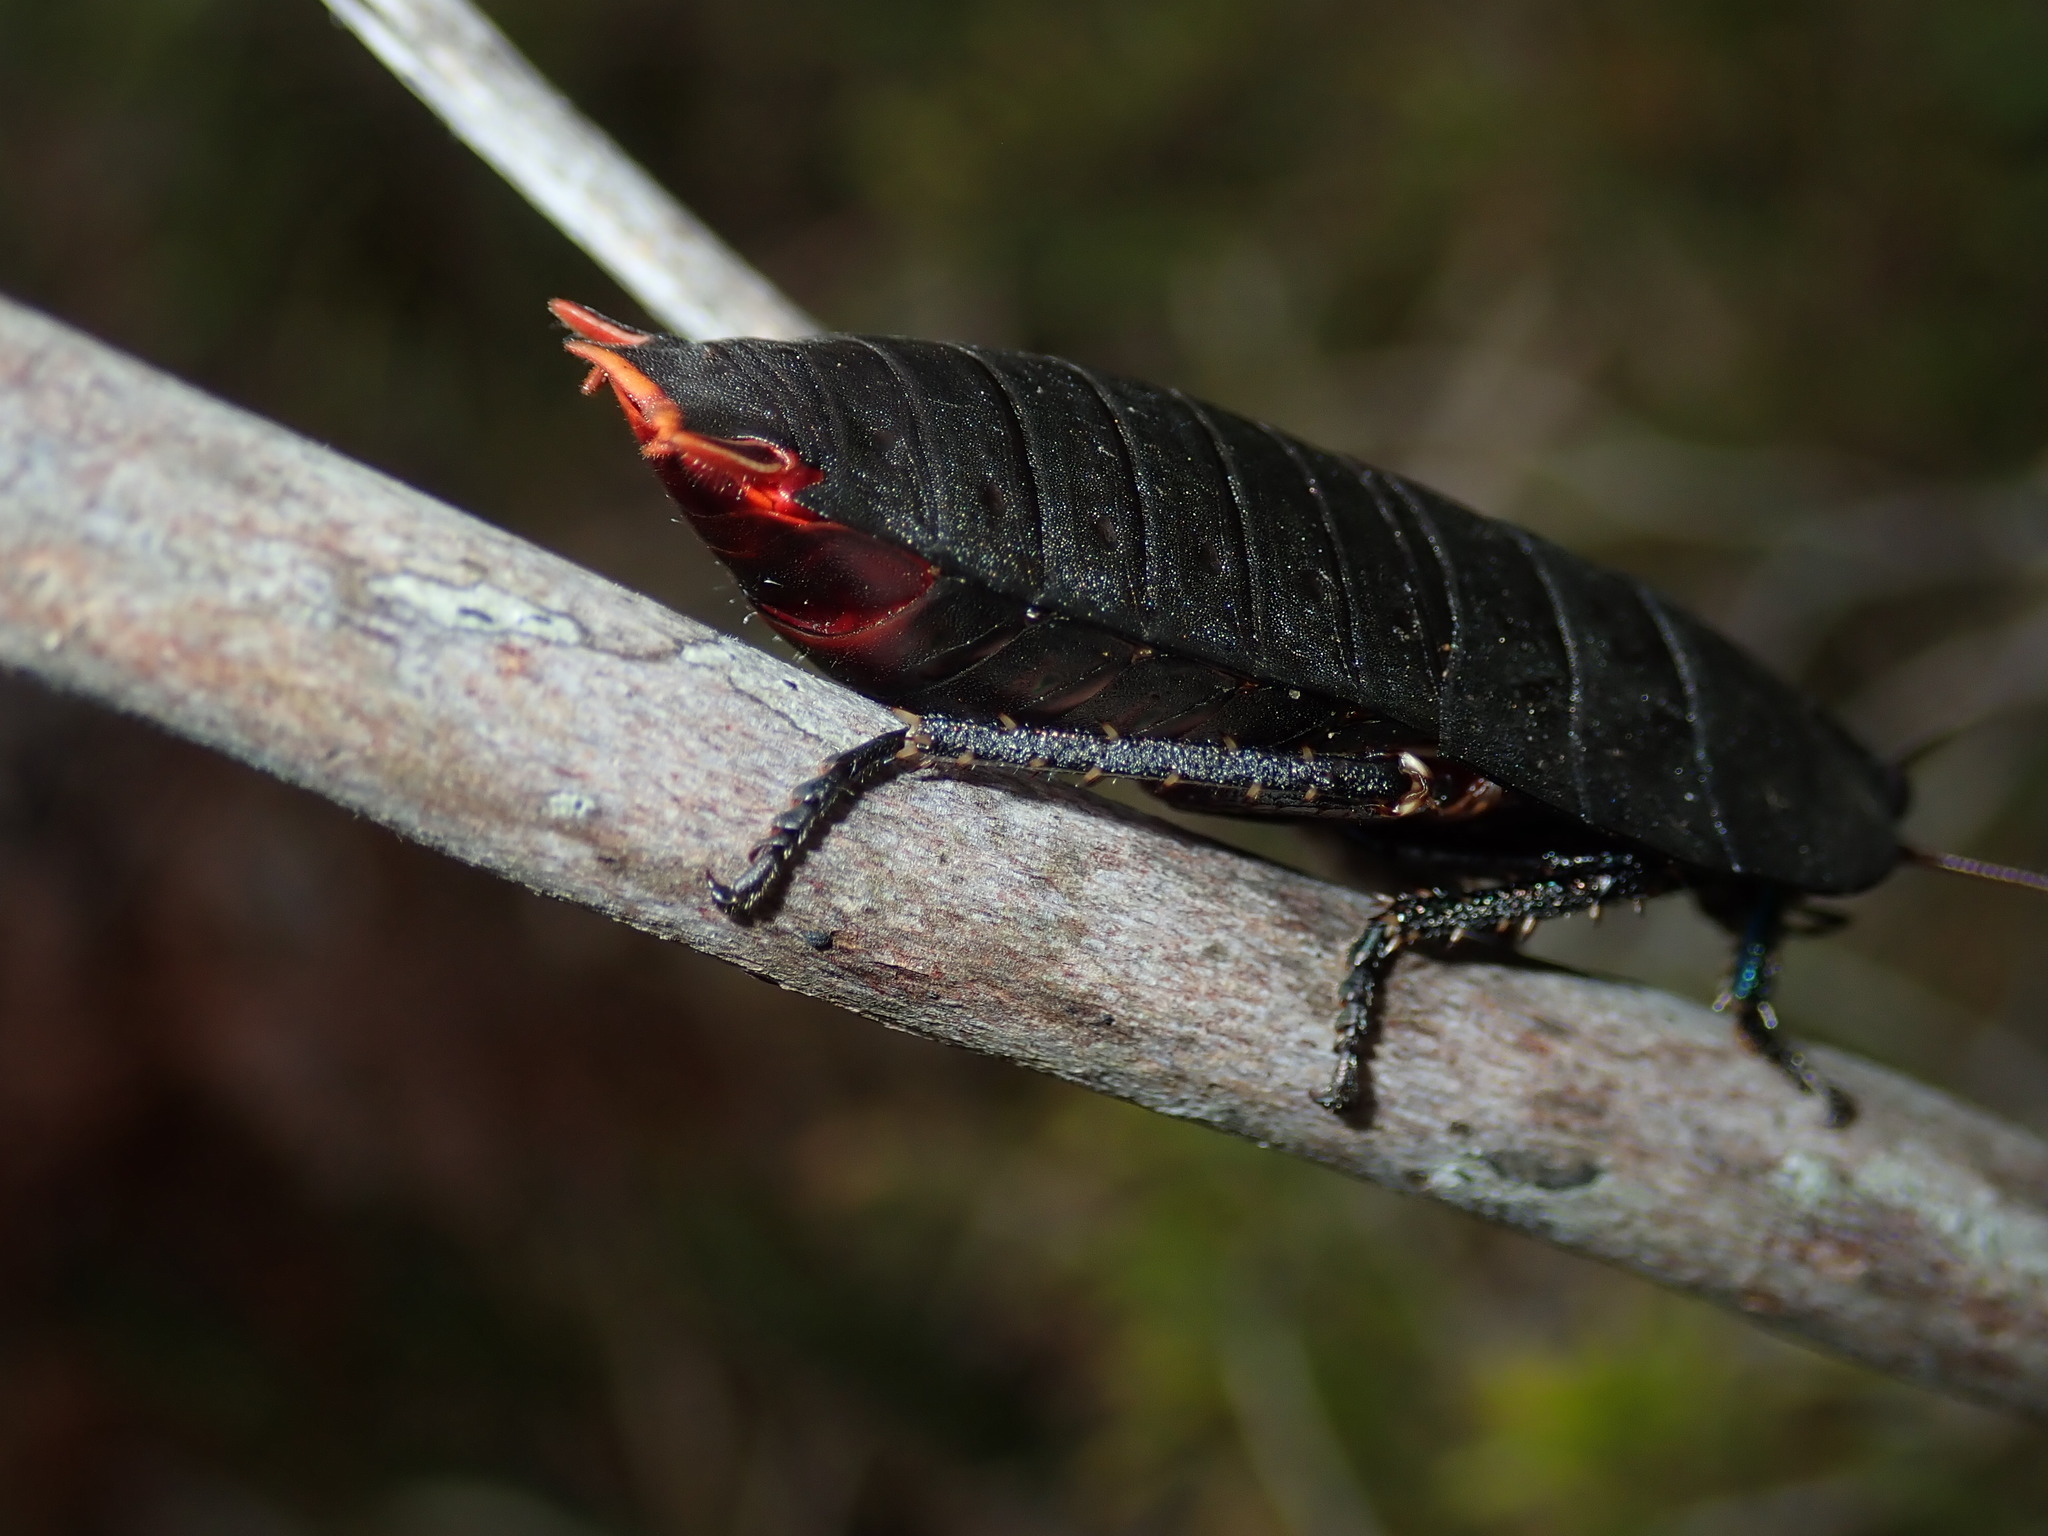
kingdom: Animalia
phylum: Arthropoda
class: Insecta
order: Blattodea
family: Blattidae
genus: Polyzosteria
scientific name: Polyzosteria invisa
